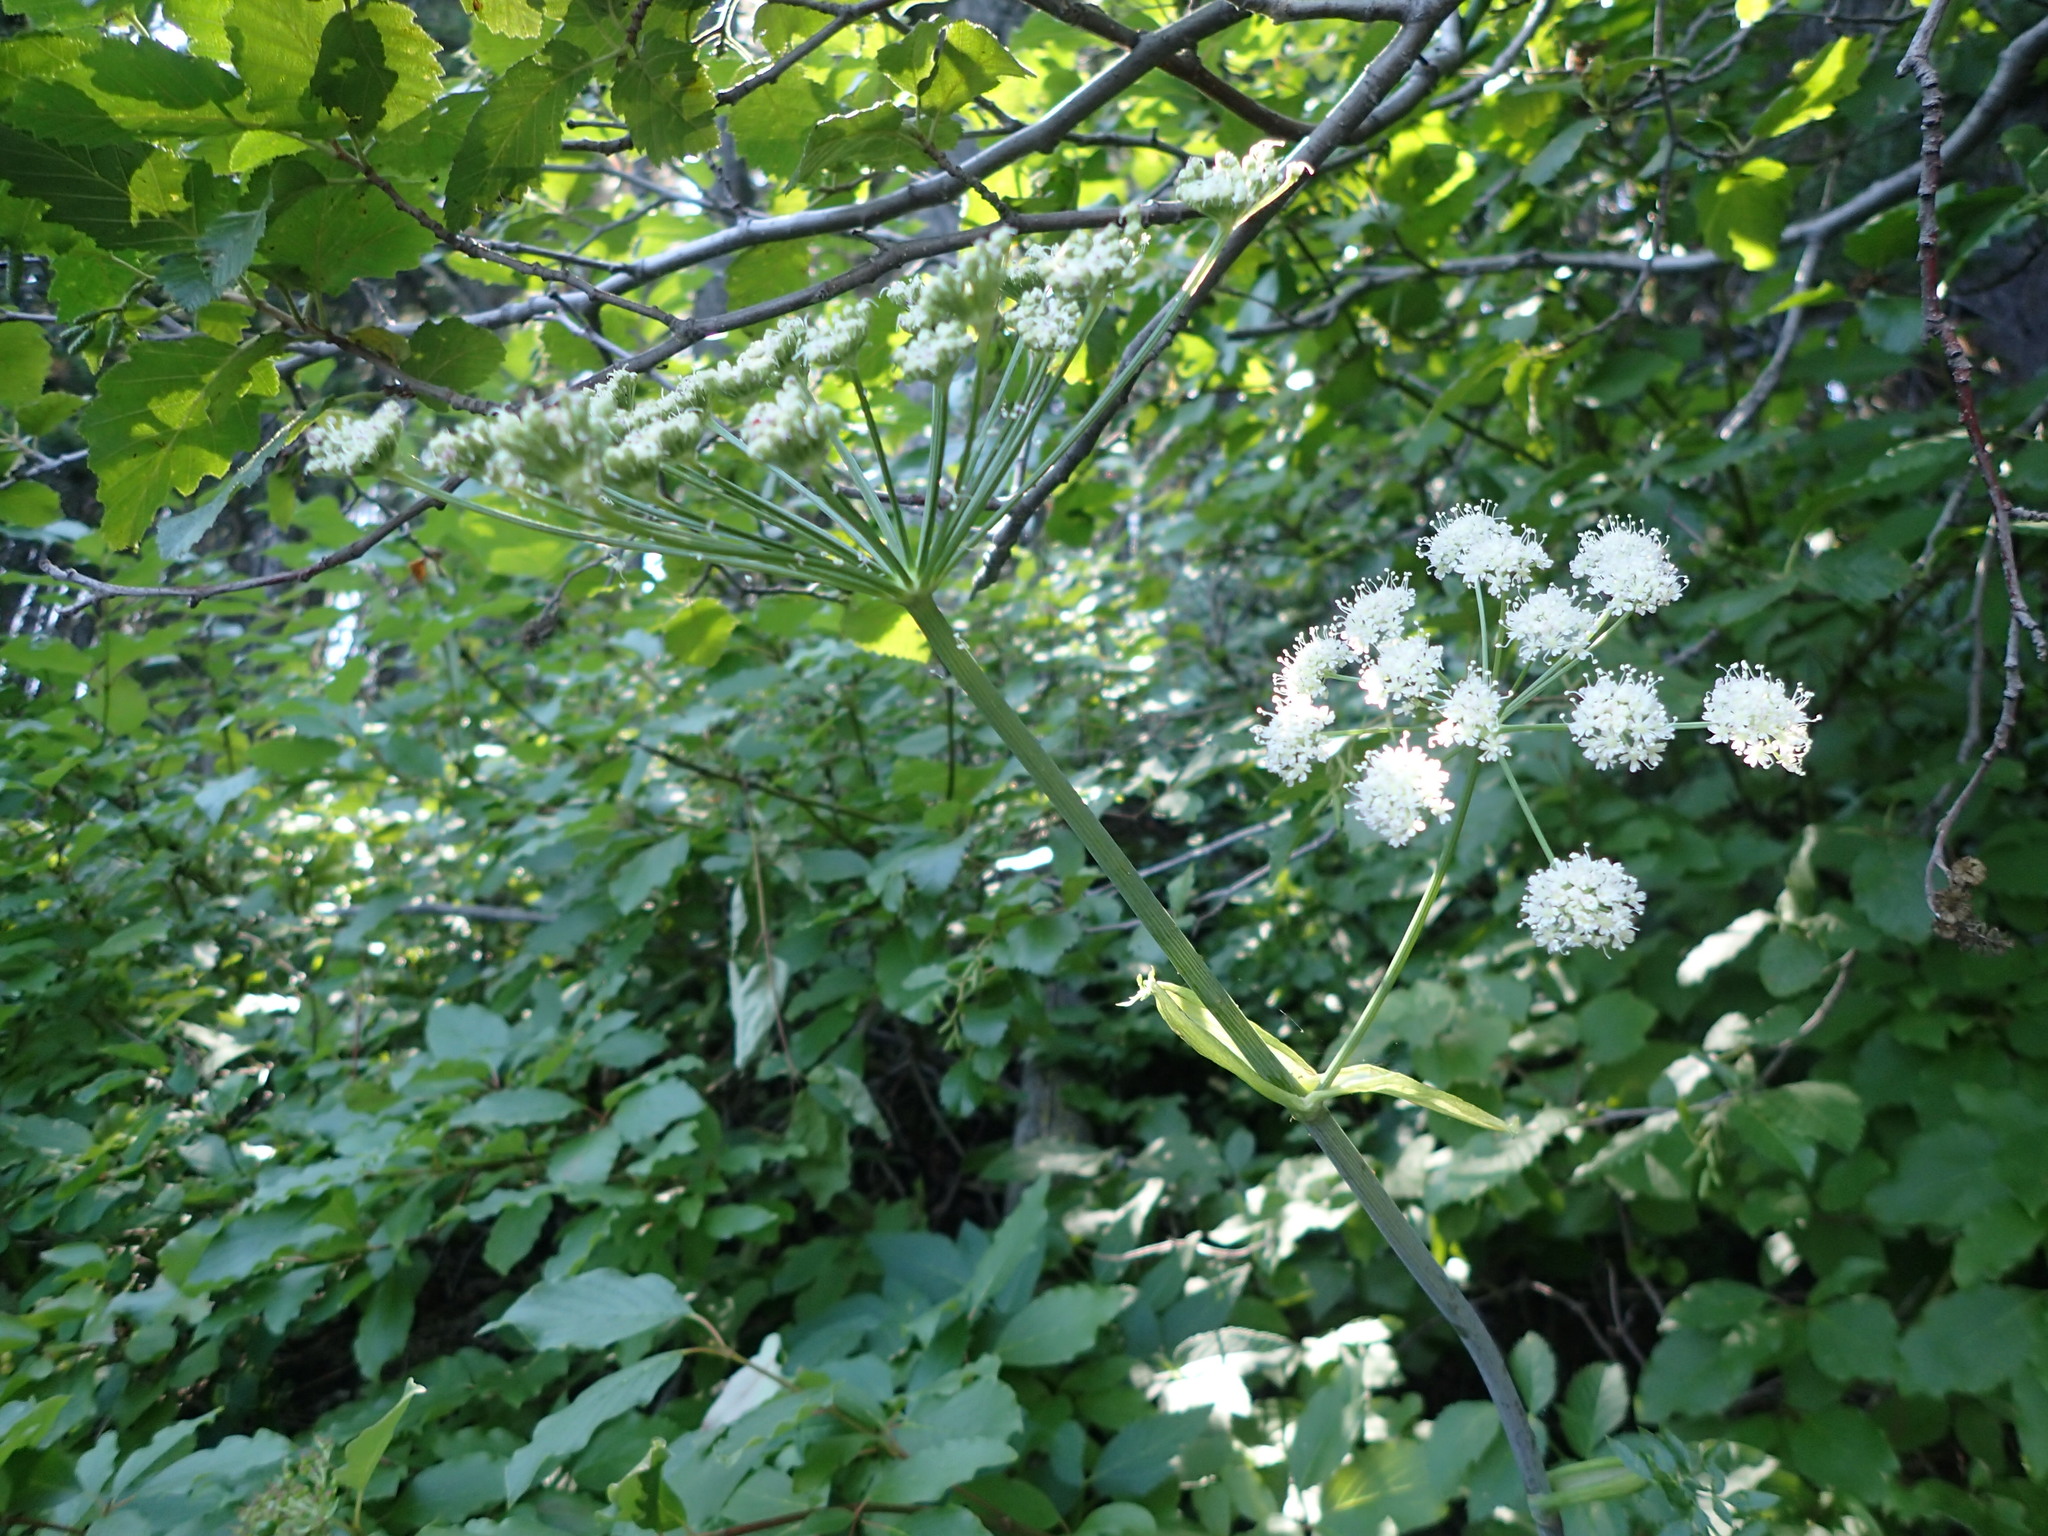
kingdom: Plantae
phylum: Tracheophyta
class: Magnoliopsida
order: Apiales
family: Apiaceae
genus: Angelica
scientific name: Angelica arguta
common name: Lyall's angelica
